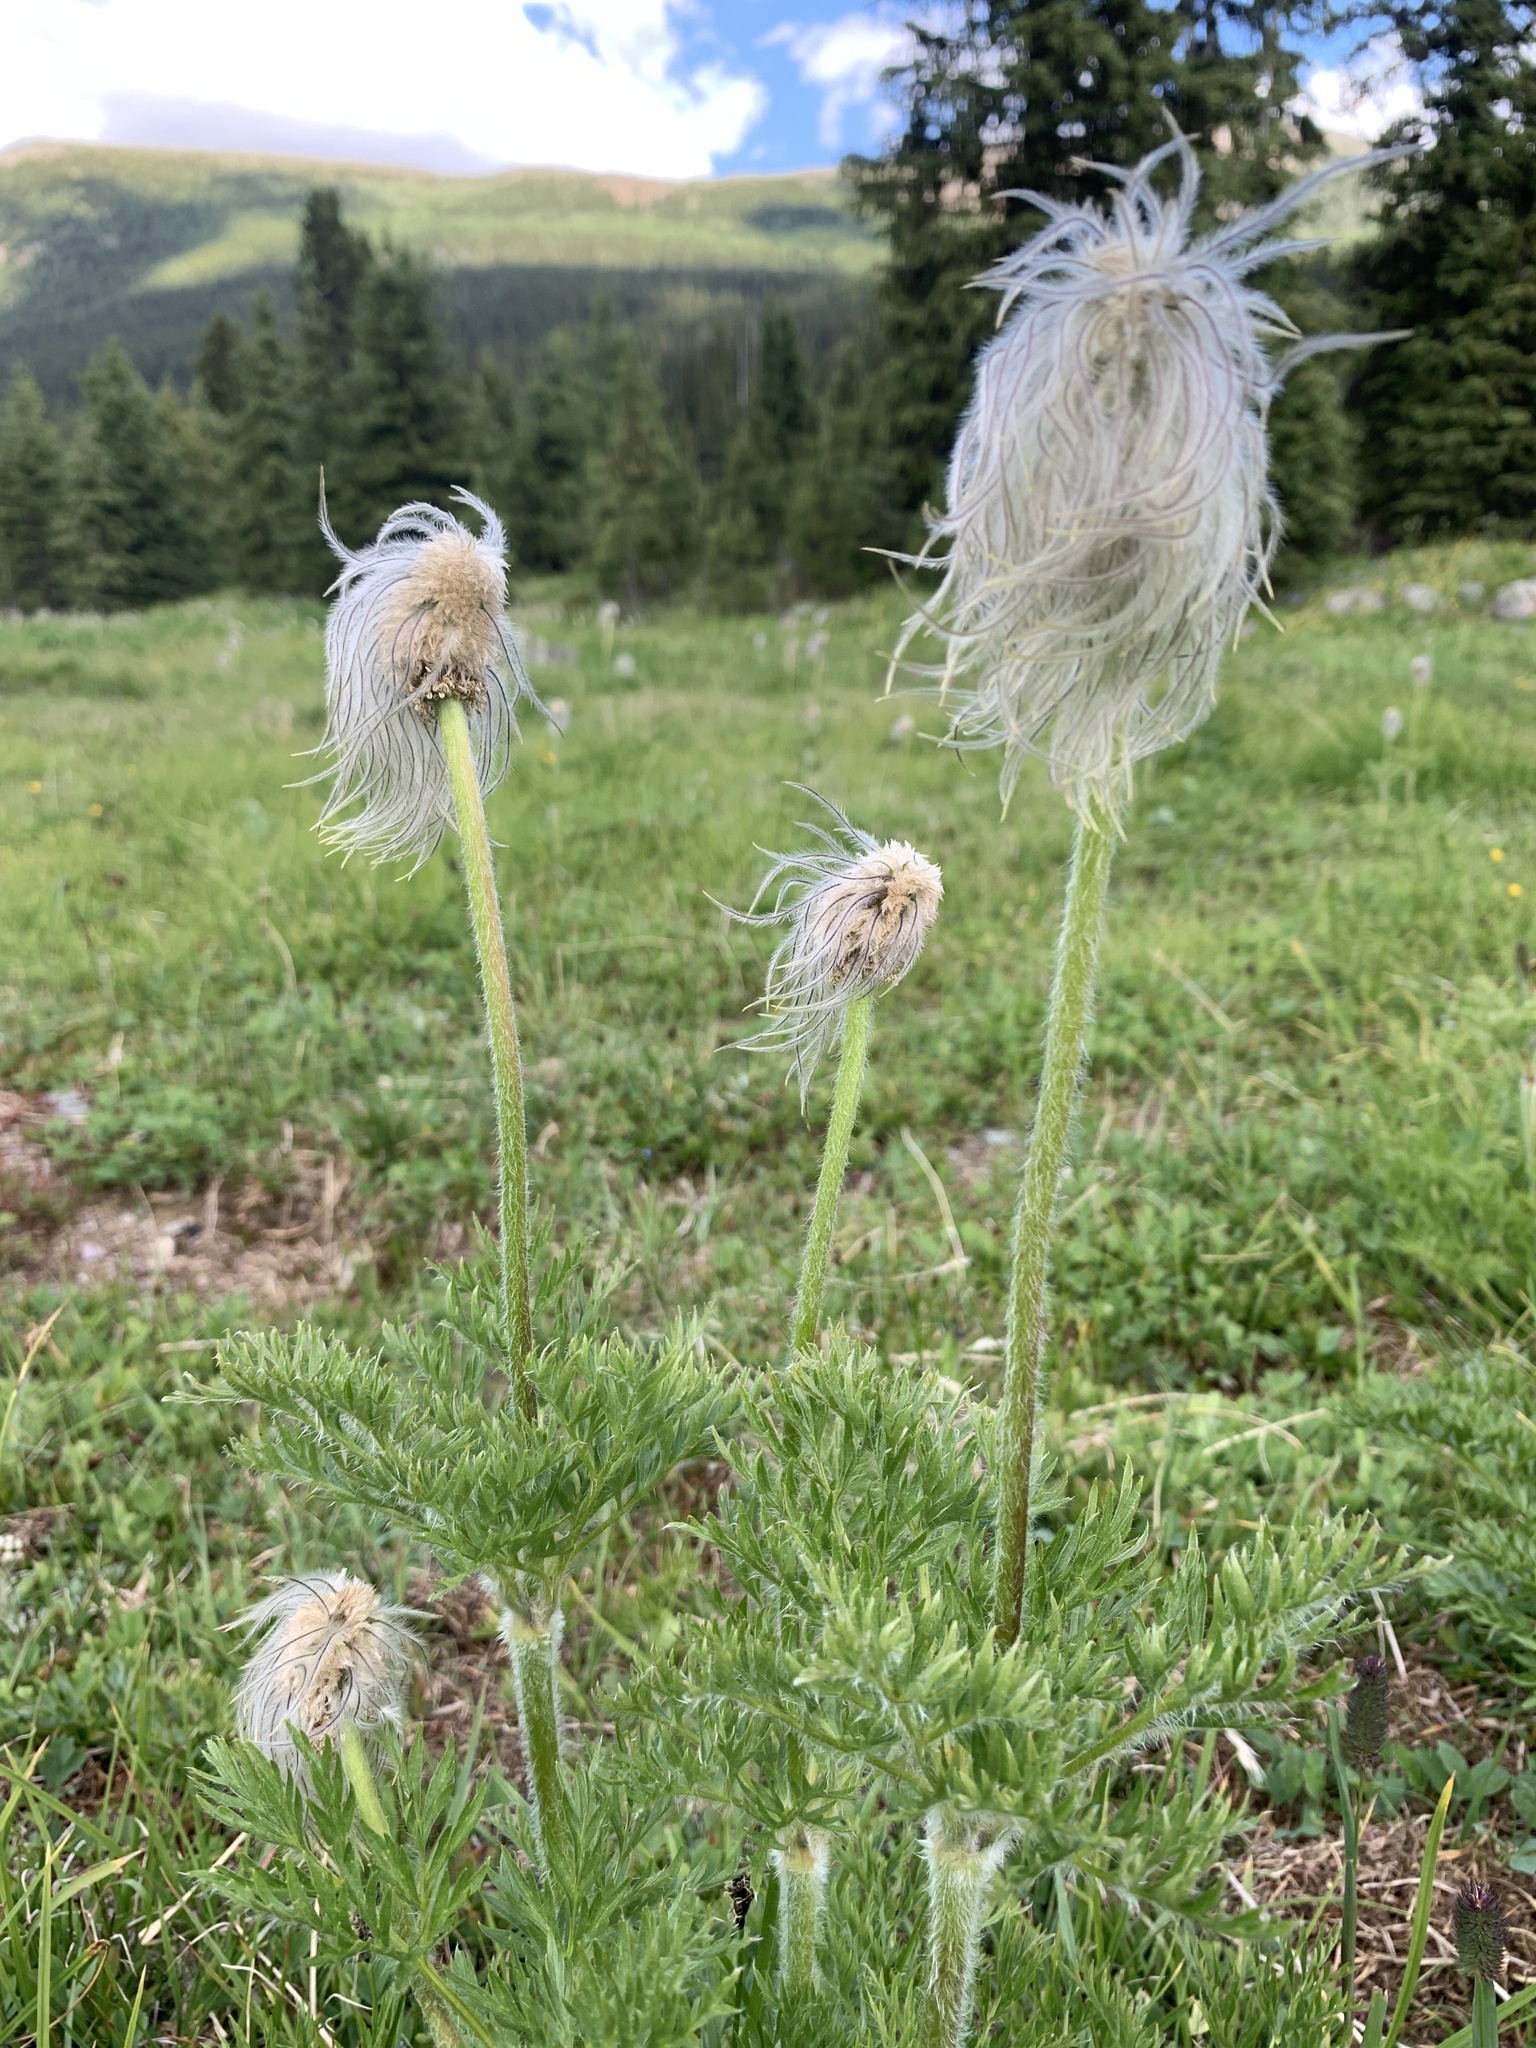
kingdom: Plantae
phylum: Tracheophyta
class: Magnoliopsida
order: Ranunculales
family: Ranunculaceae
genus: Pulsatilla
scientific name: Pulsatilla occidentalis
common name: Mountain pasqueflower
